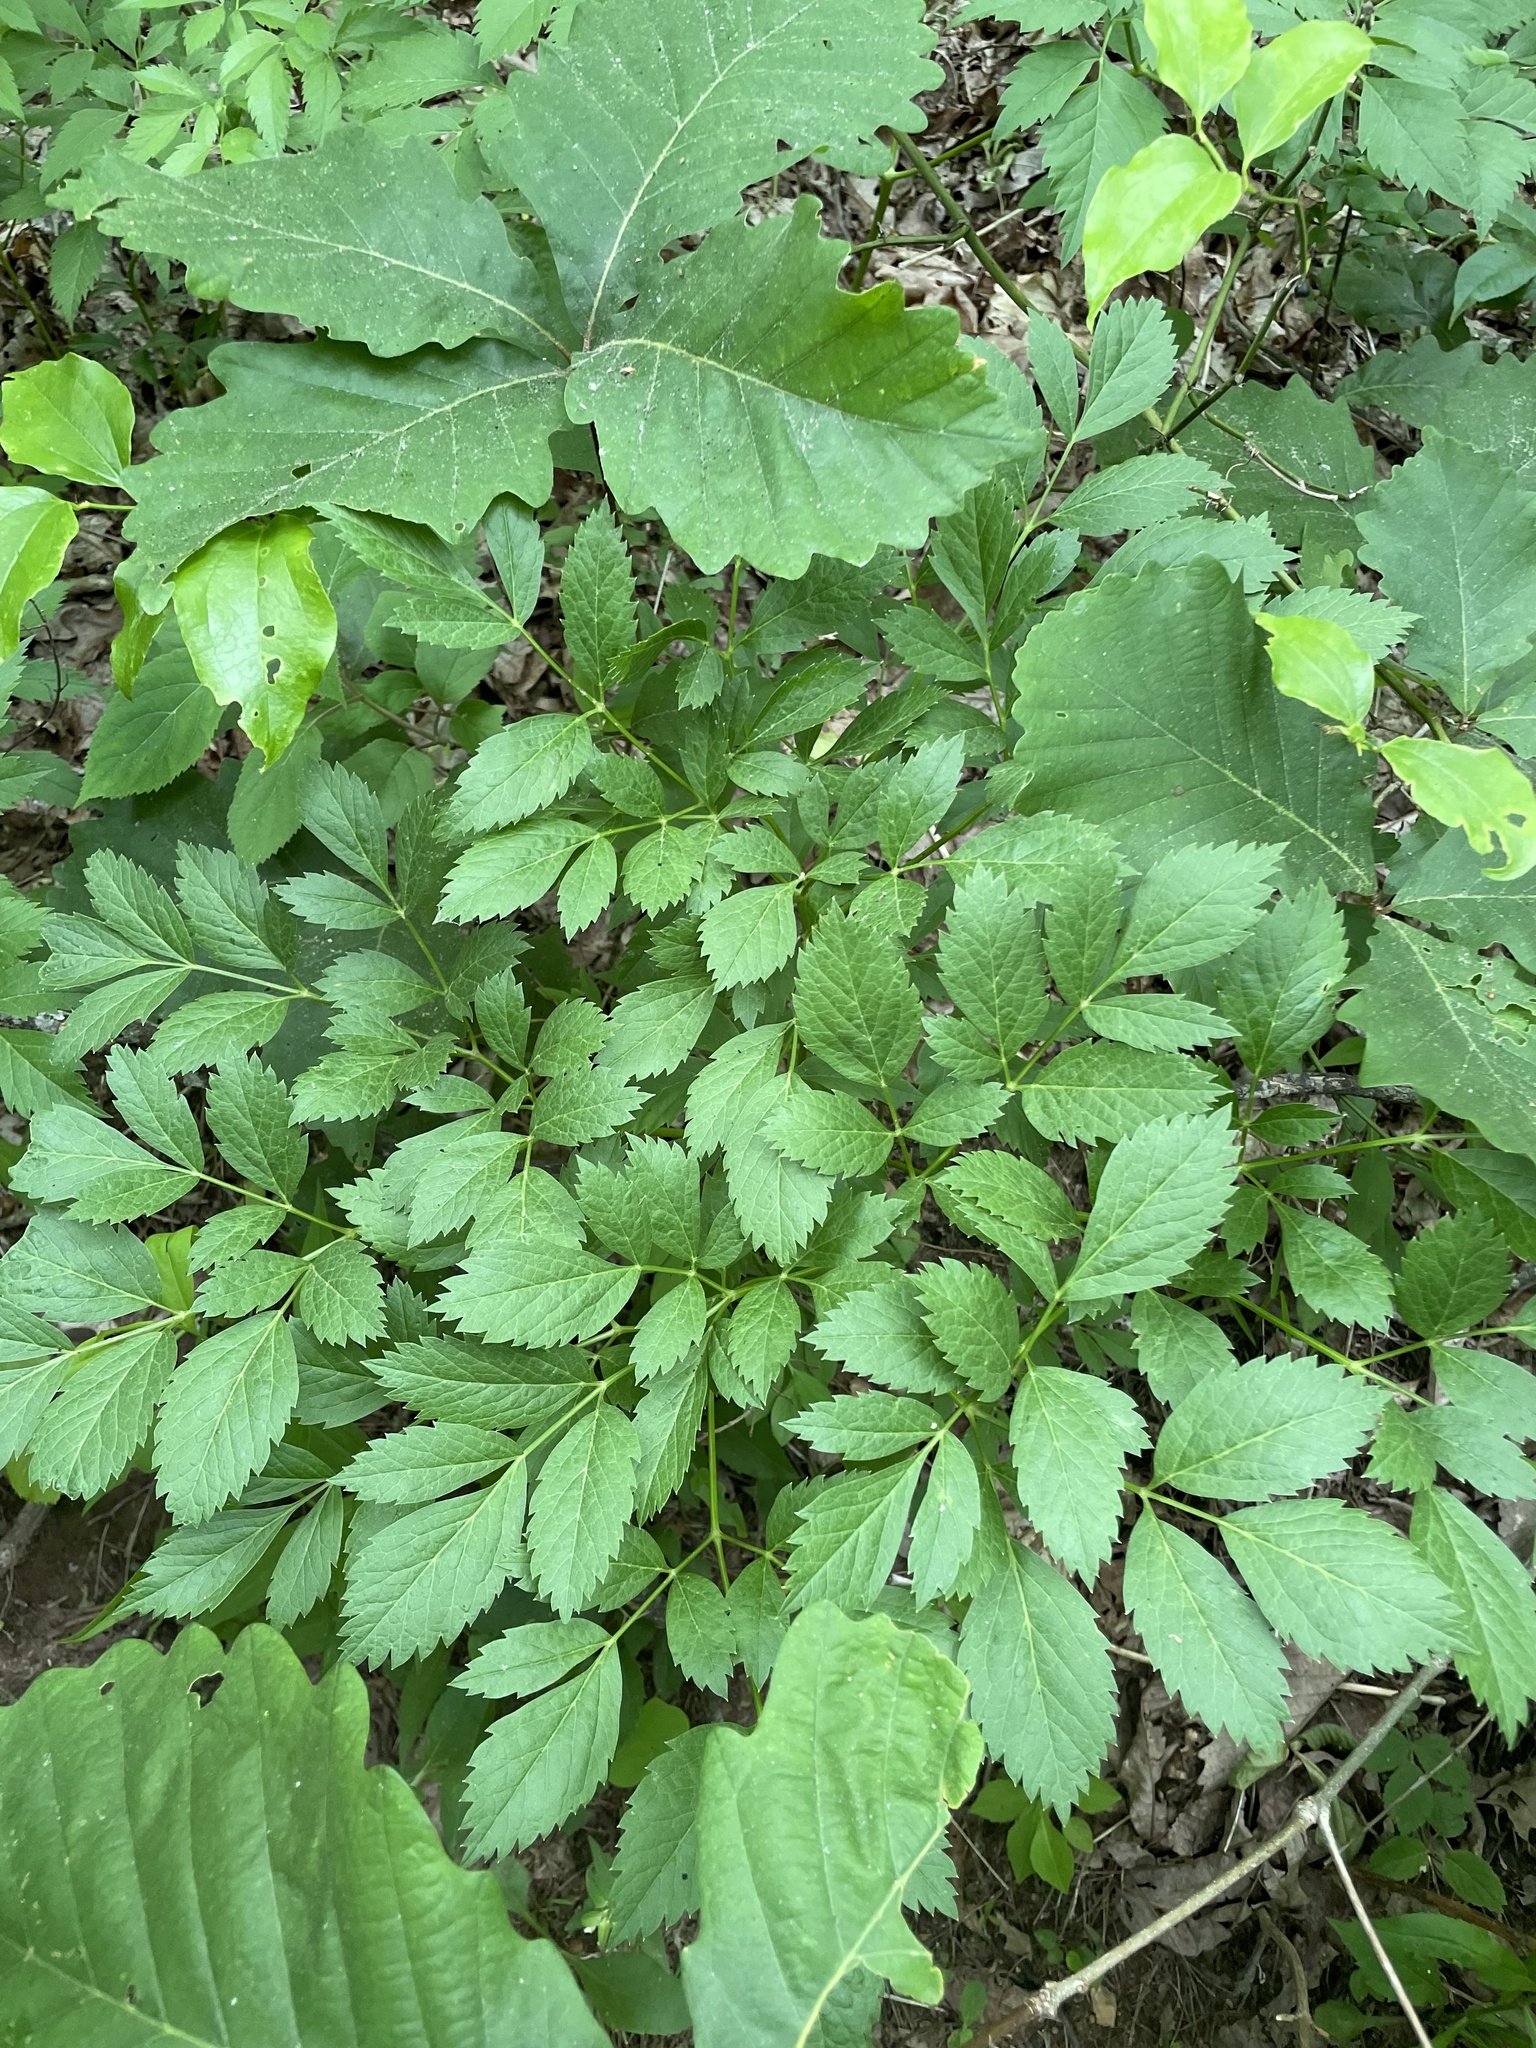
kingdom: Plantae
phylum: Tracheophyta
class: Magnoliopsida
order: Apiales
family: Apiaceae
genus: Ligusticum
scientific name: Ligusticum canadense
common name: American lovage
